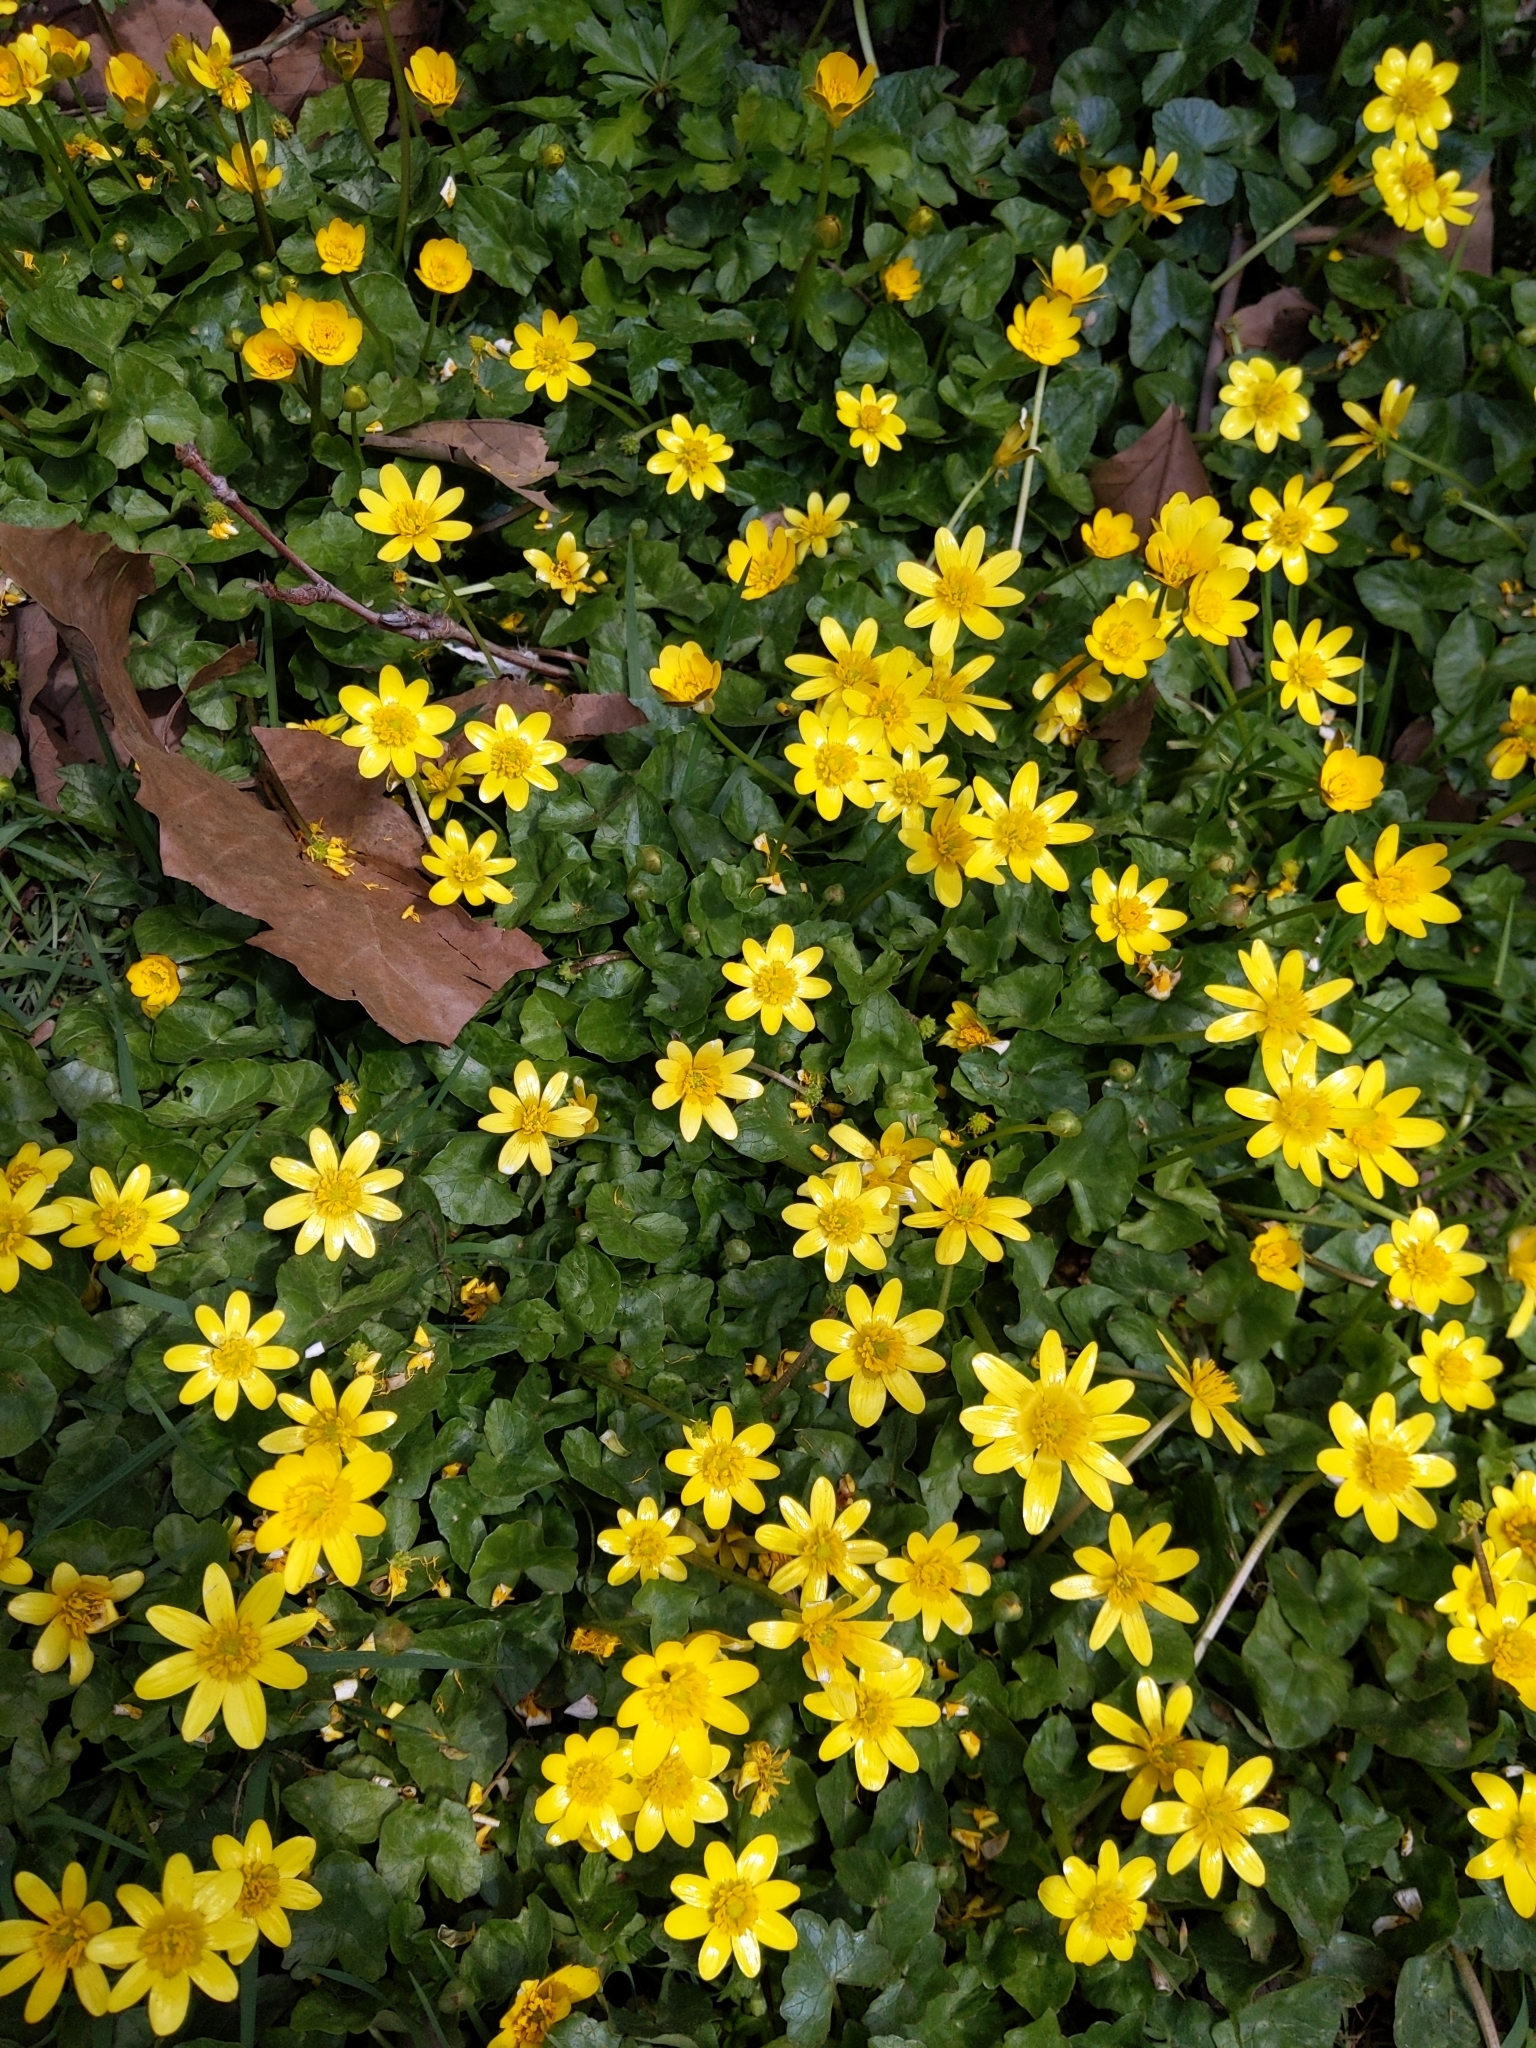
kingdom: Plantae
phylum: Tracheophyta
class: Magnoliopsida
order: Ranunculales
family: Ranunculaceae
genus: Ficaria
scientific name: Ficaria verna
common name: Lesser celandine
